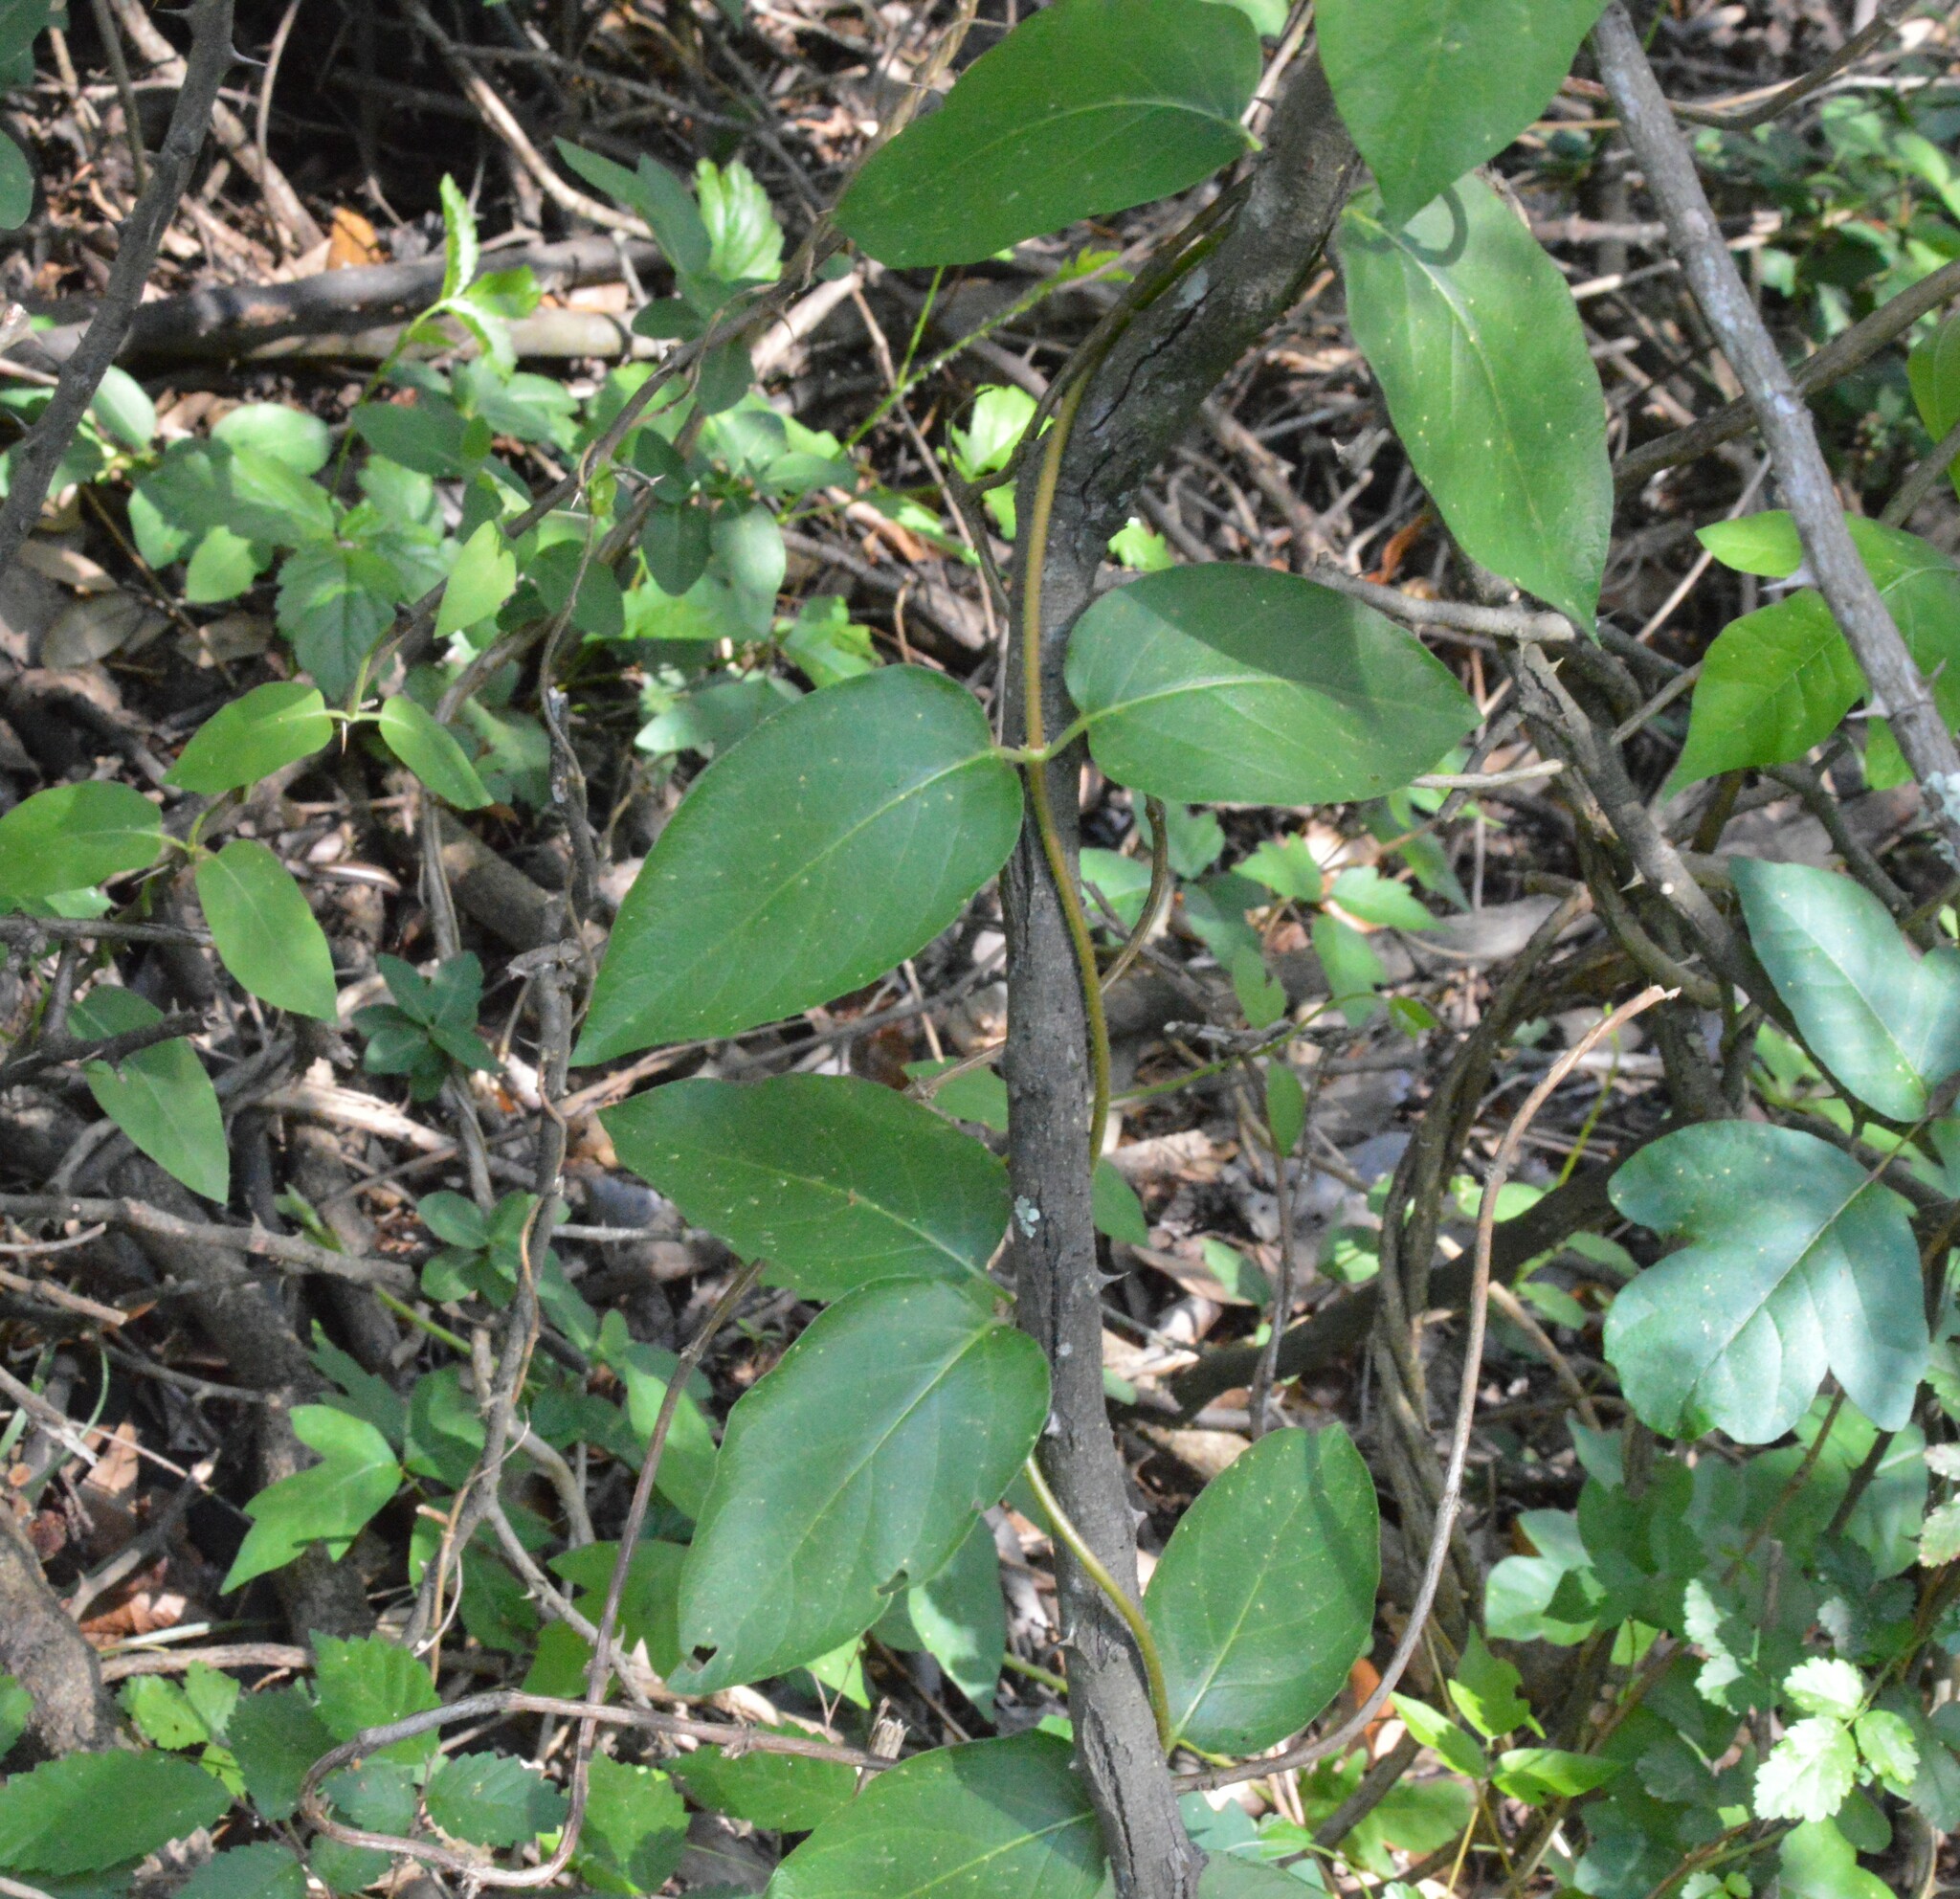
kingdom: Plantae
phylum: Tracheophyta
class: Magnoliopsida
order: Dipsacales
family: Caprifoliaceae
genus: Lonicera
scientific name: Lonicera japonica
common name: Japanese honeysuckle
